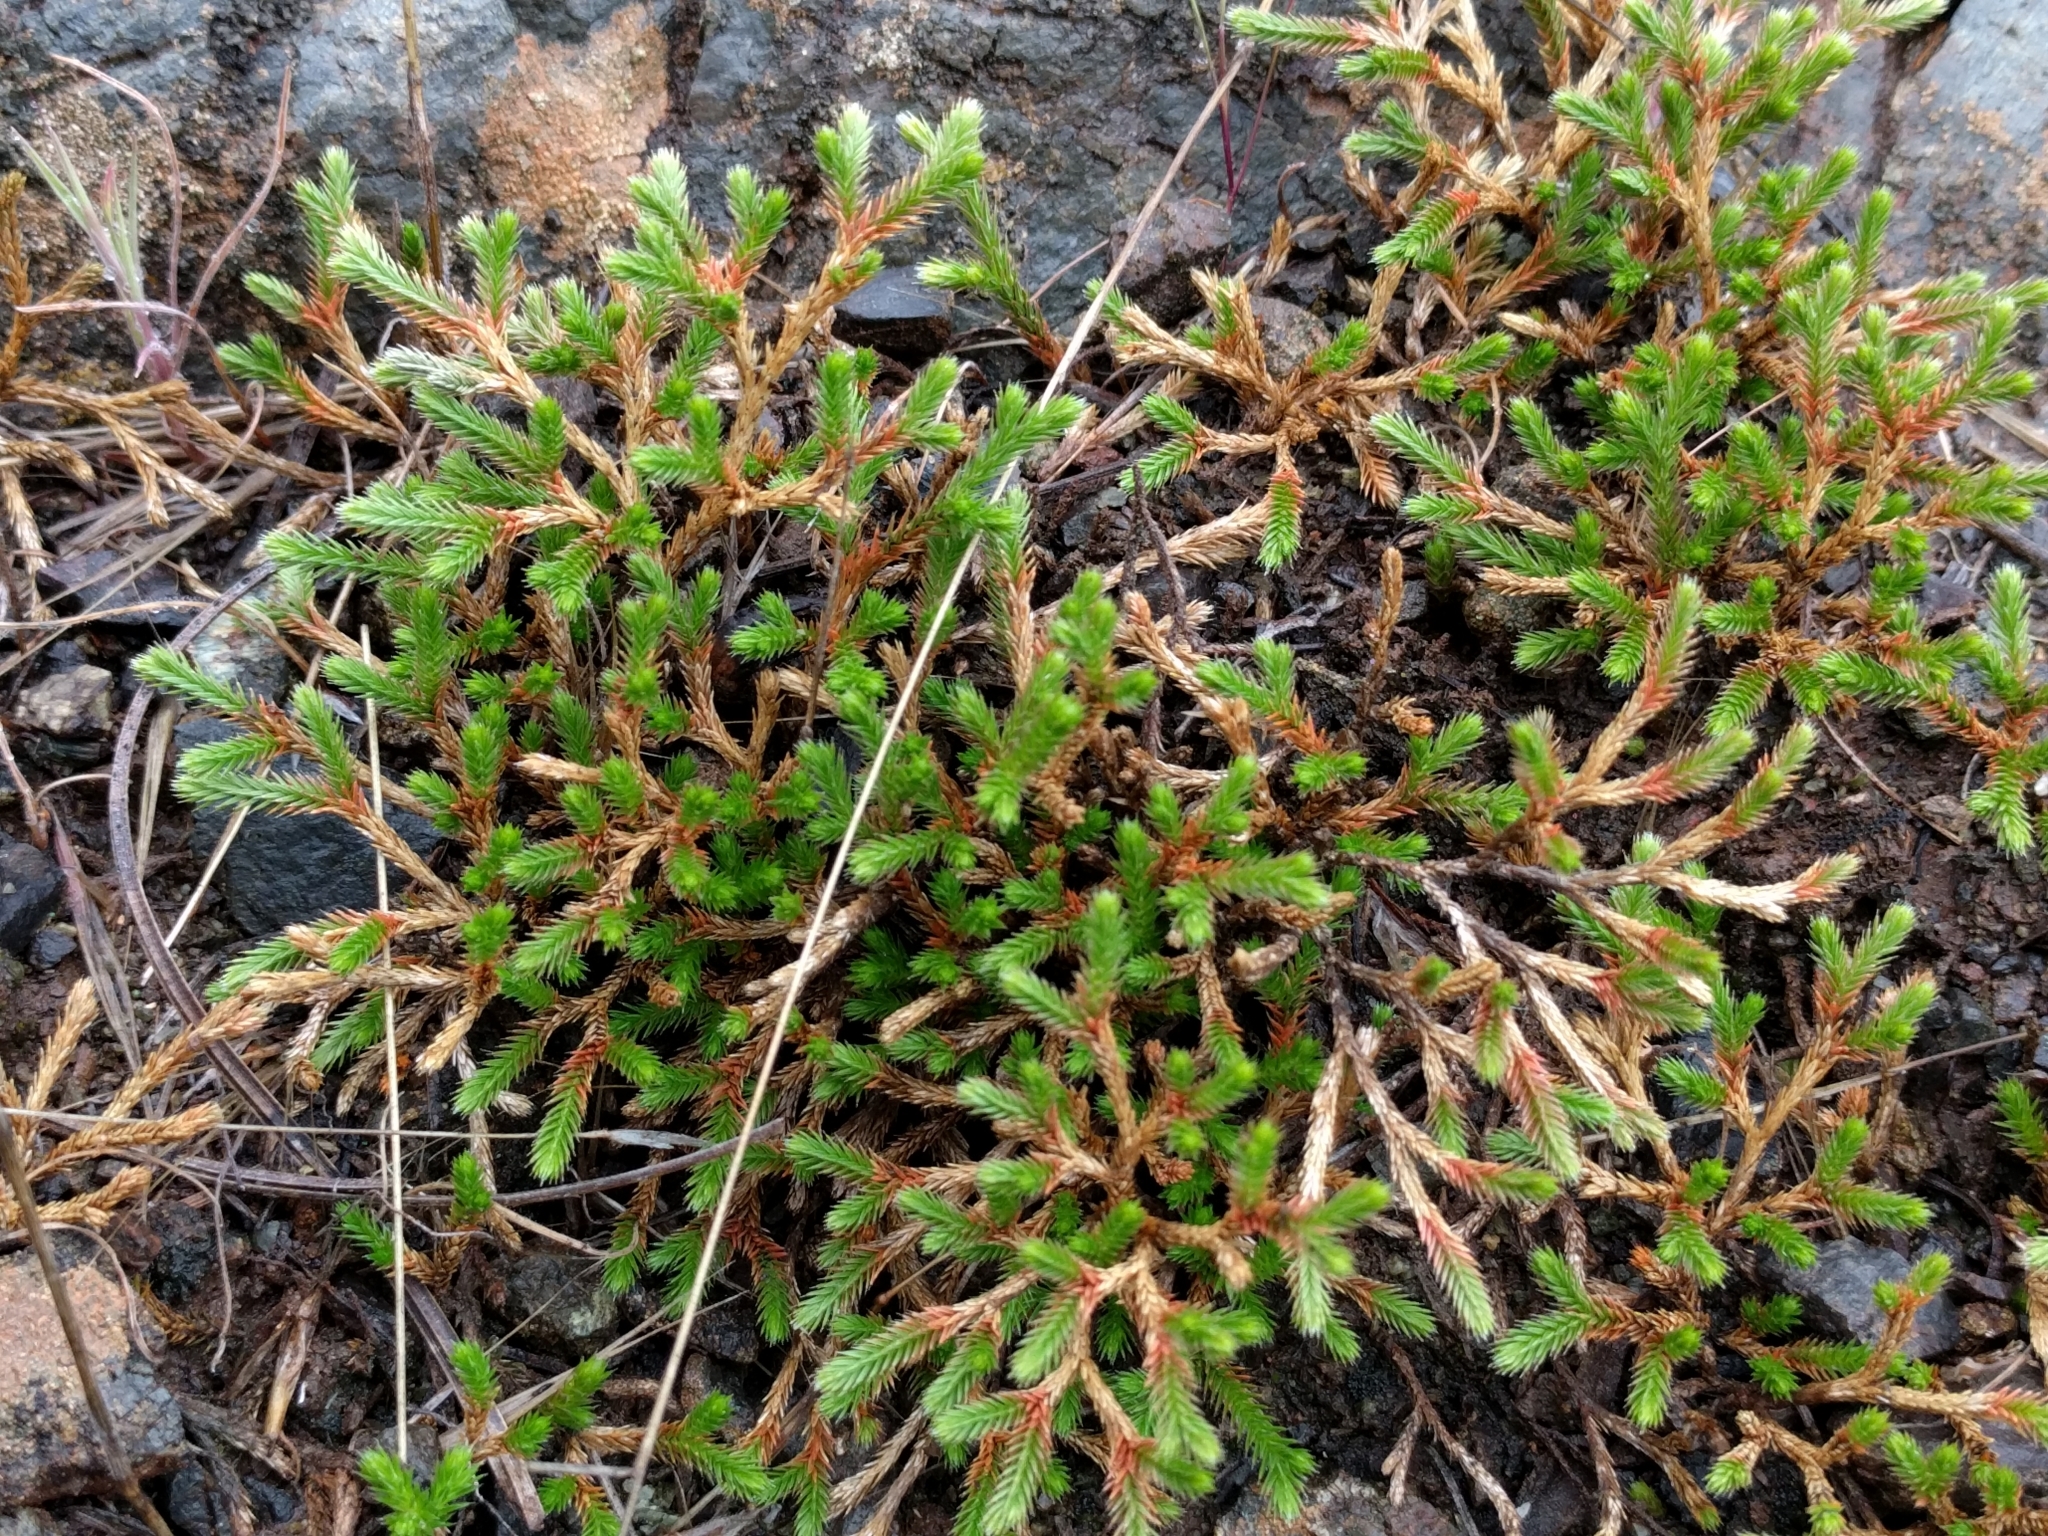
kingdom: Plantae
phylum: Tracheophyta
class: Lycopodiopsida
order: Selaginellales
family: Selaginellaceae
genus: Selaginella
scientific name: Selaginella bigelovii
